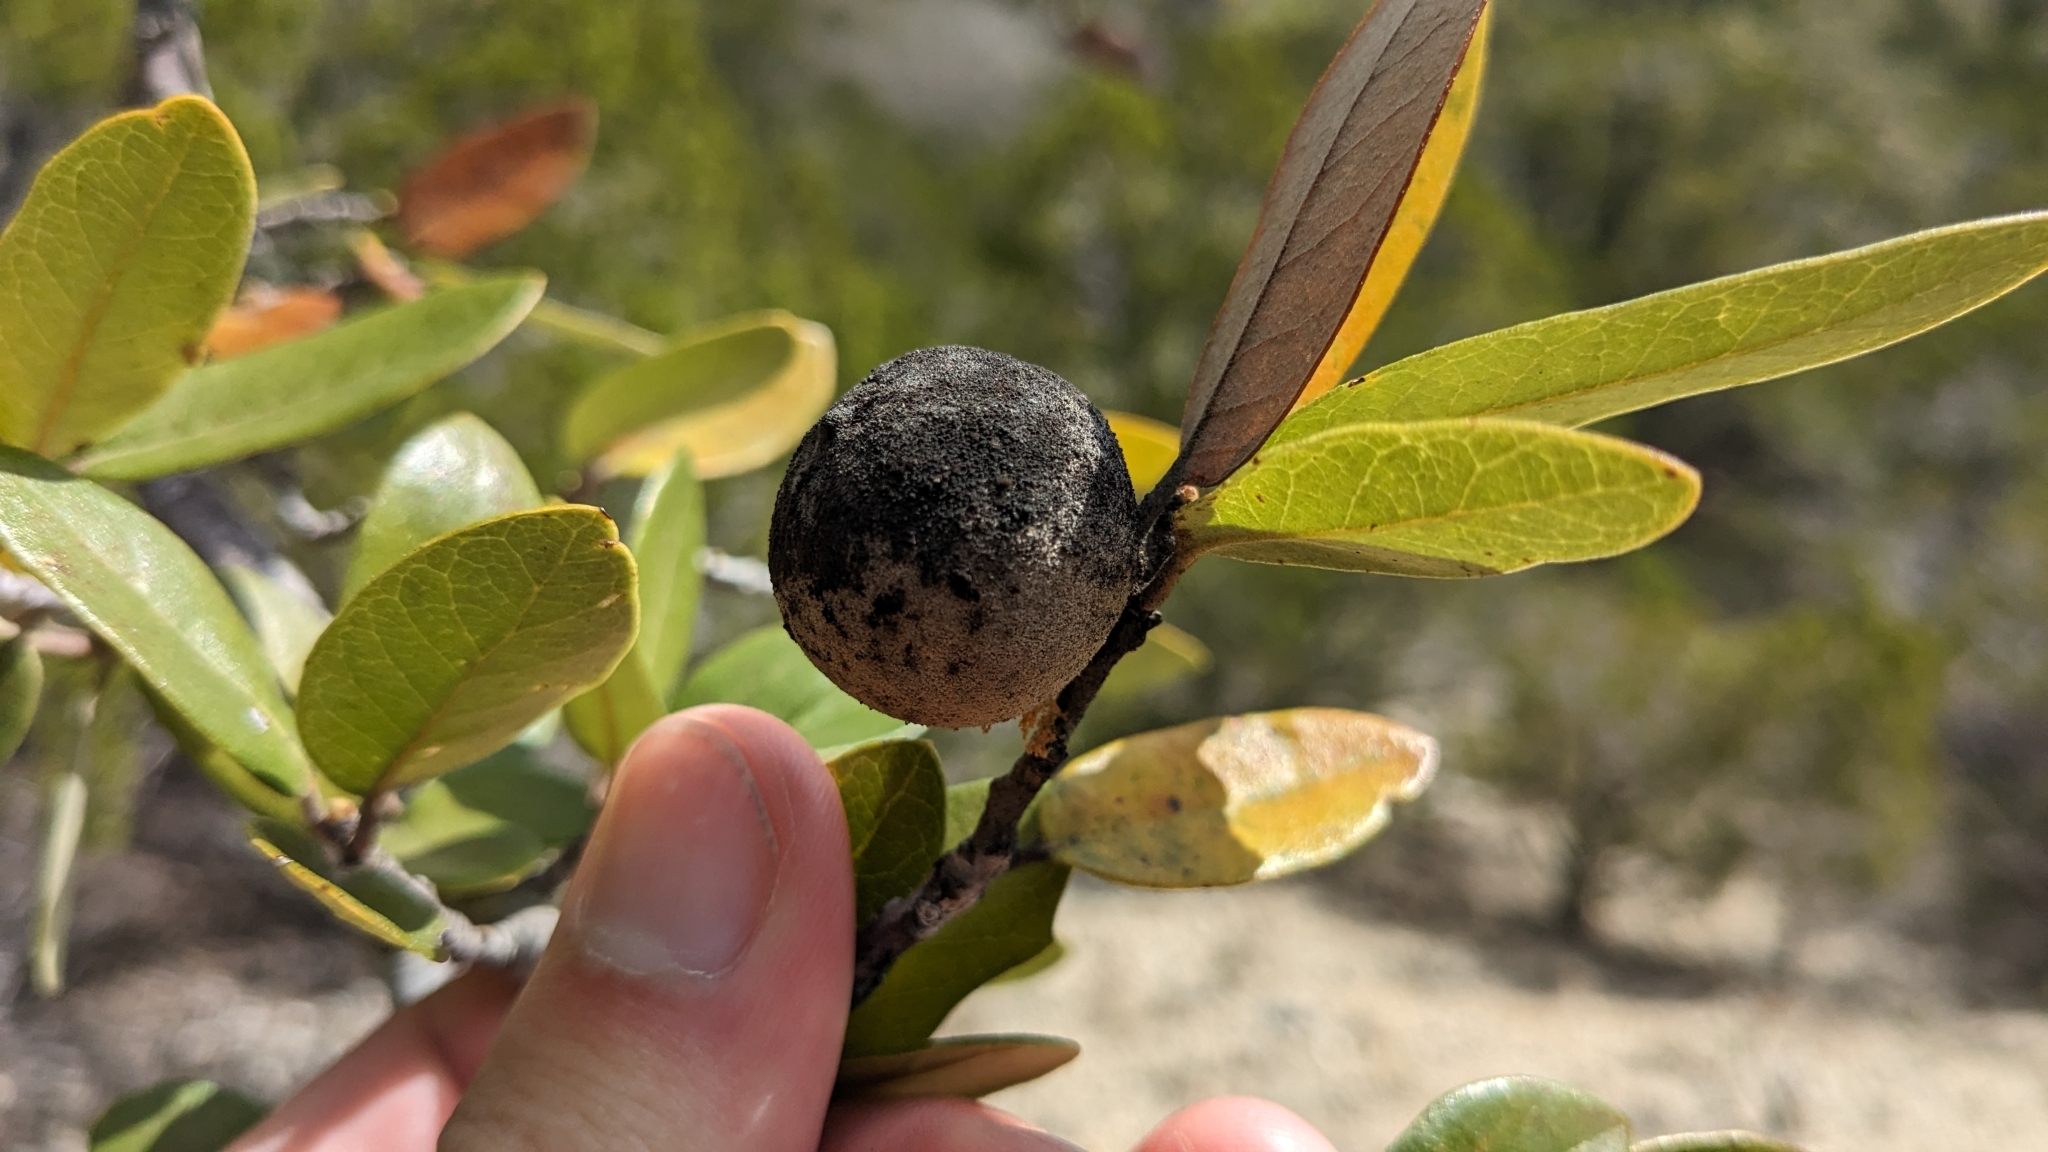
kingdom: Animalia
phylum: Arthropoda
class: Insecta
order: Hymenoptera
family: Cynipidae
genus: Disholcaspis
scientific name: Disholcaspis
